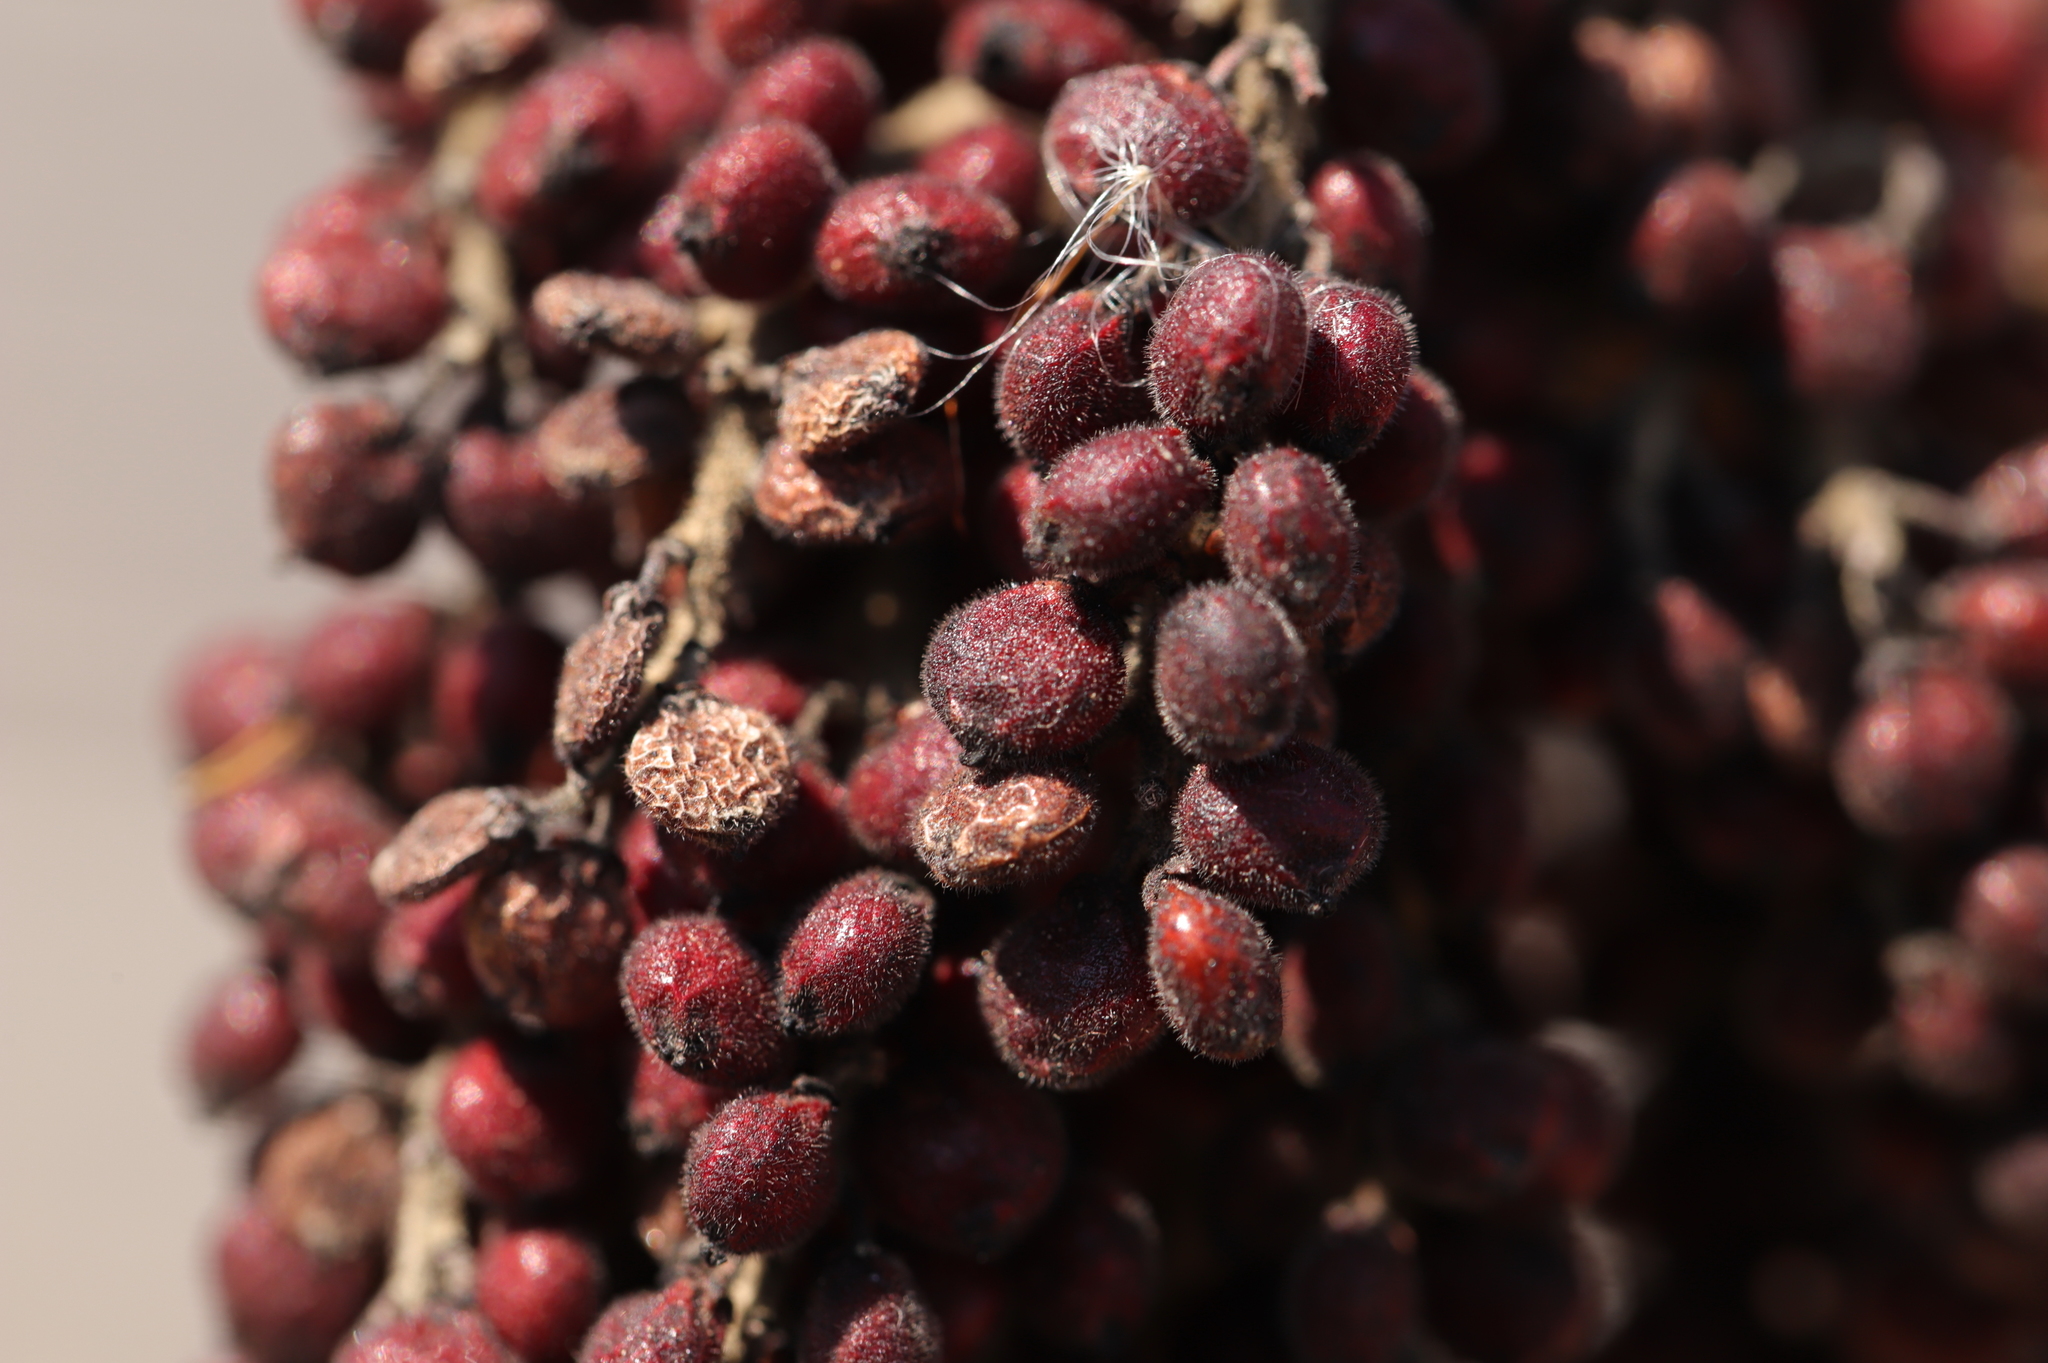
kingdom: Plantae
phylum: Tracheophyta
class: Magnoliopsida
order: Sapindales
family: Anacardiaceae
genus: Rhus
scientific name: Rhus copallina
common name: Shining sumac
